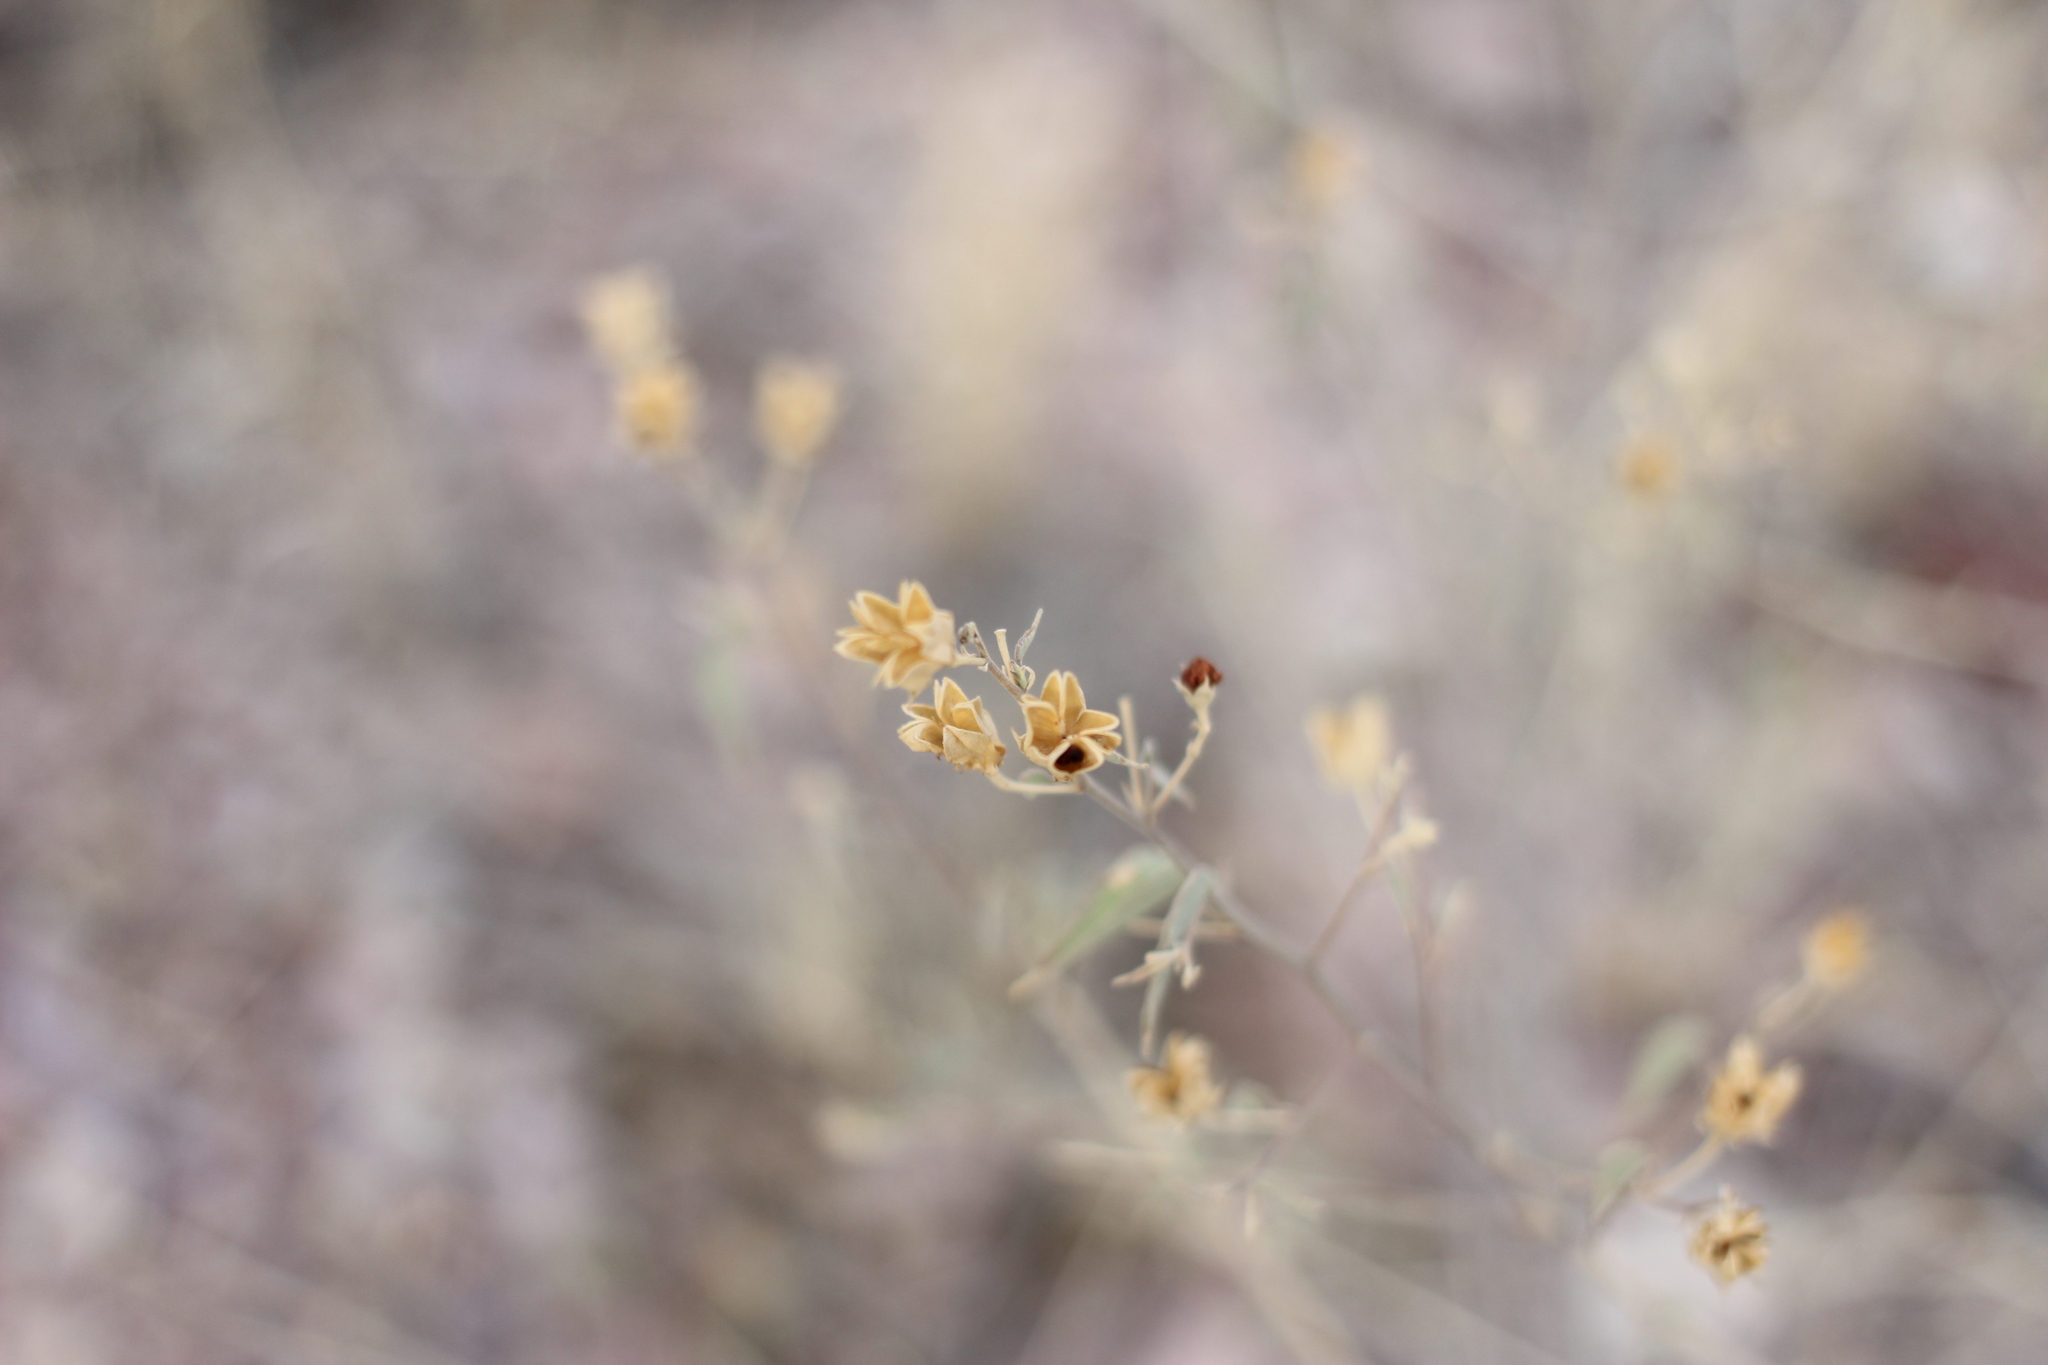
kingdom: Plantae
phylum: Tracheophyta
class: Magnoliopsida
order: Malvales
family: Malvaceae
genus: Abutilon
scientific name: Abutilon incanum
